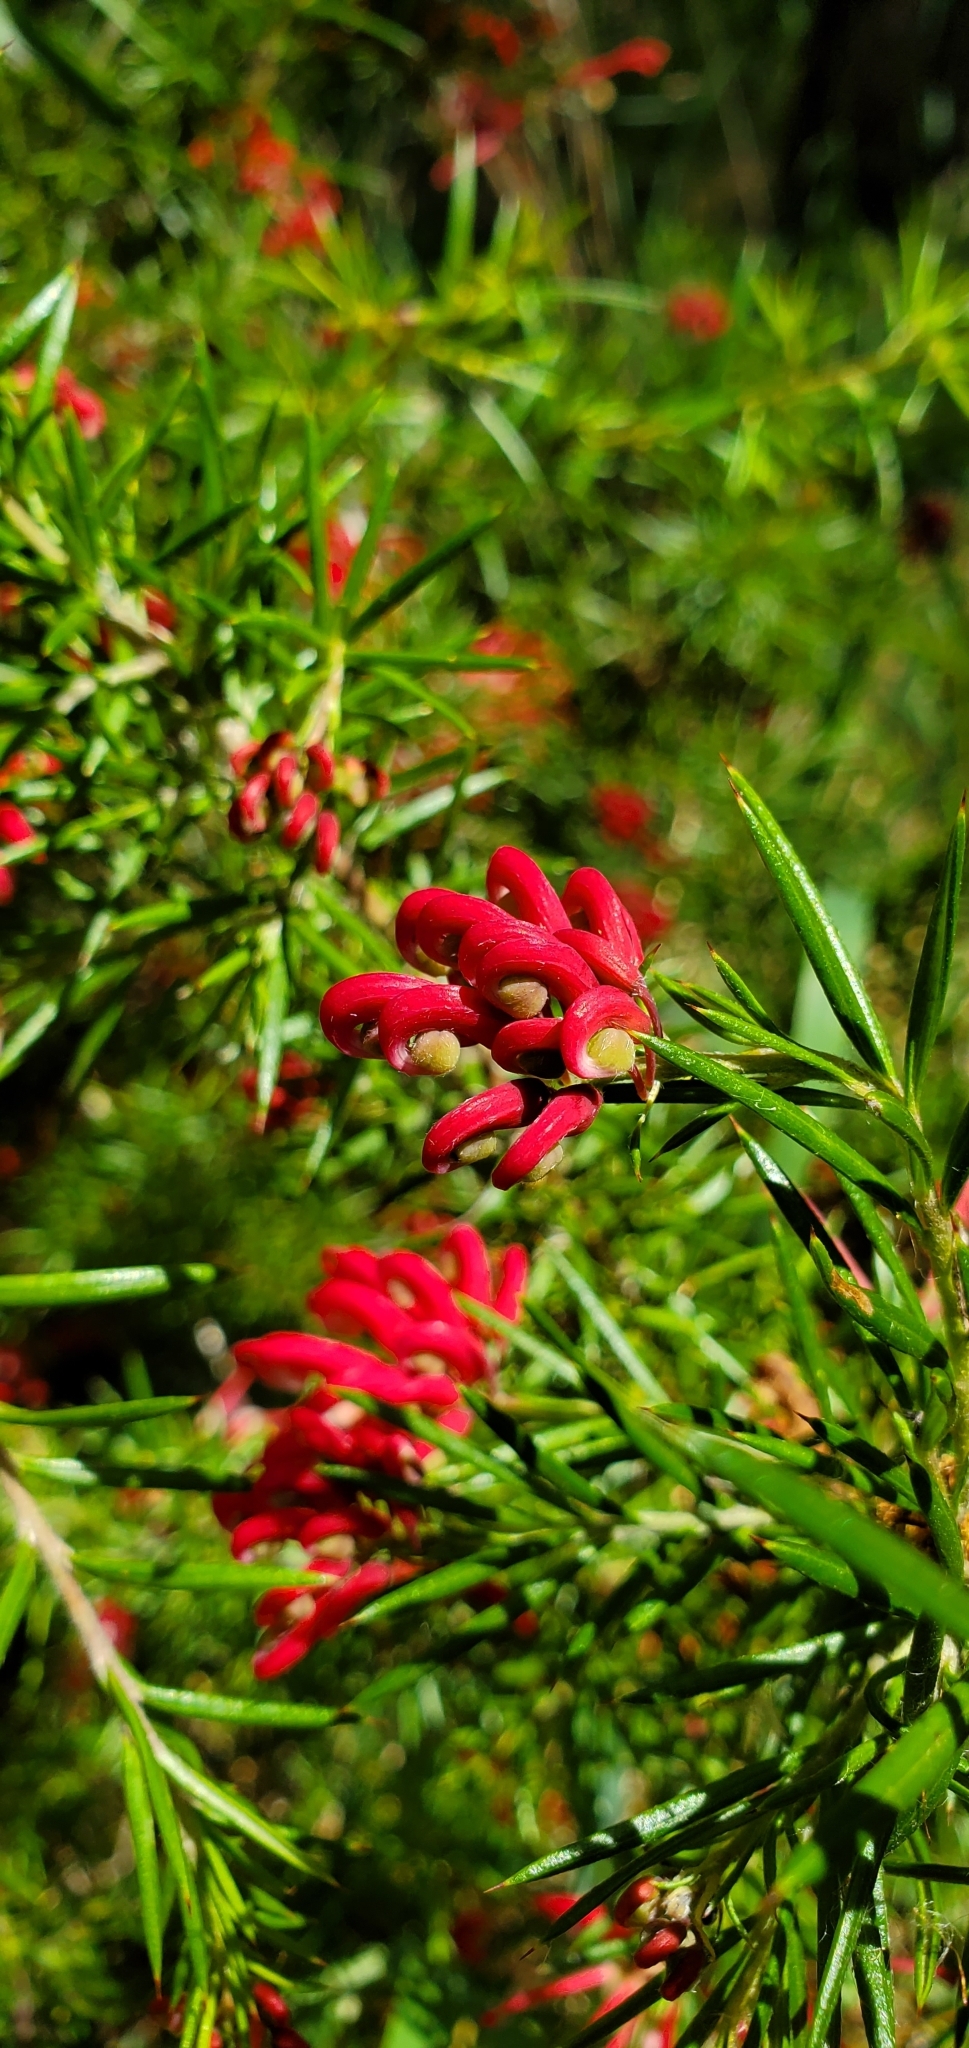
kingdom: Plantae
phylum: Tracheophyta
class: Magnoliopsida
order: Proteales
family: Proteaceae
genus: Grevillea
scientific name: Grevillea
